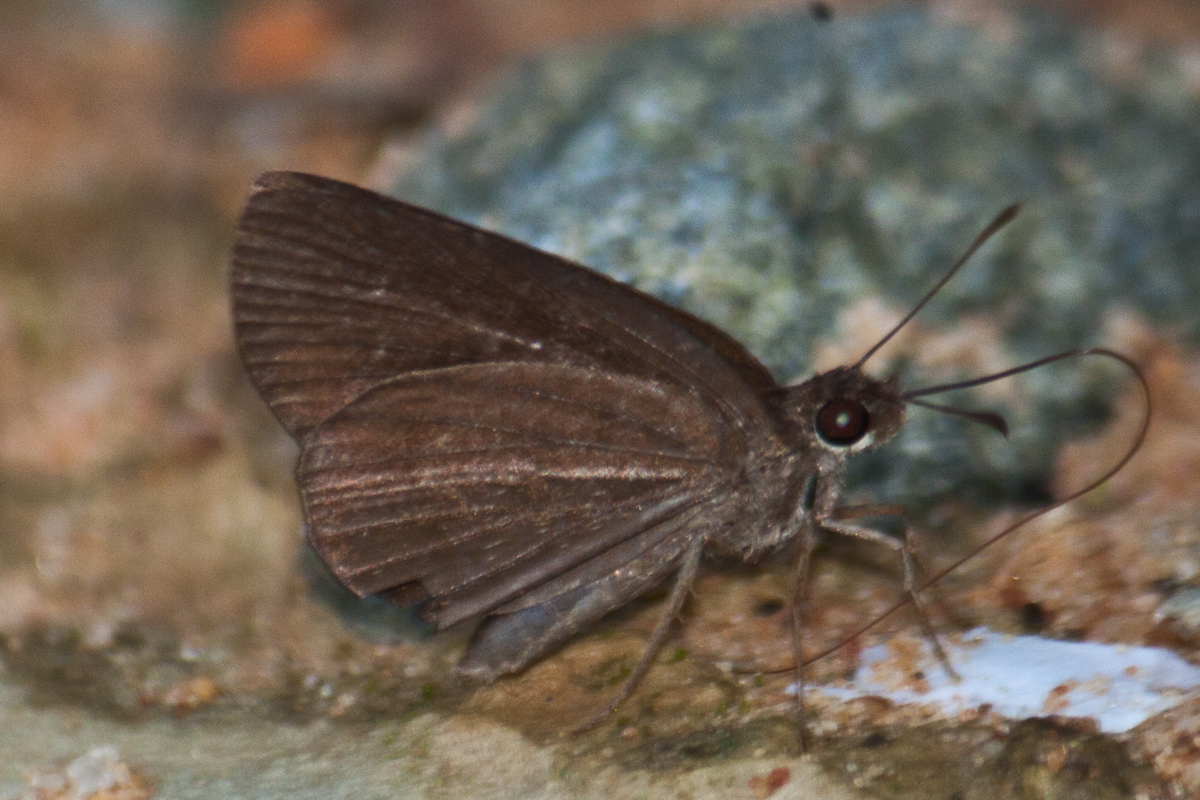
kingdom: Animalia
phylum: Arthropoda
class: Insecta
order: Lepidoptera
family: Hesperiidae
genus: Astictopterus
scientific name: Astictopterus jama
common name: Forest hopper
